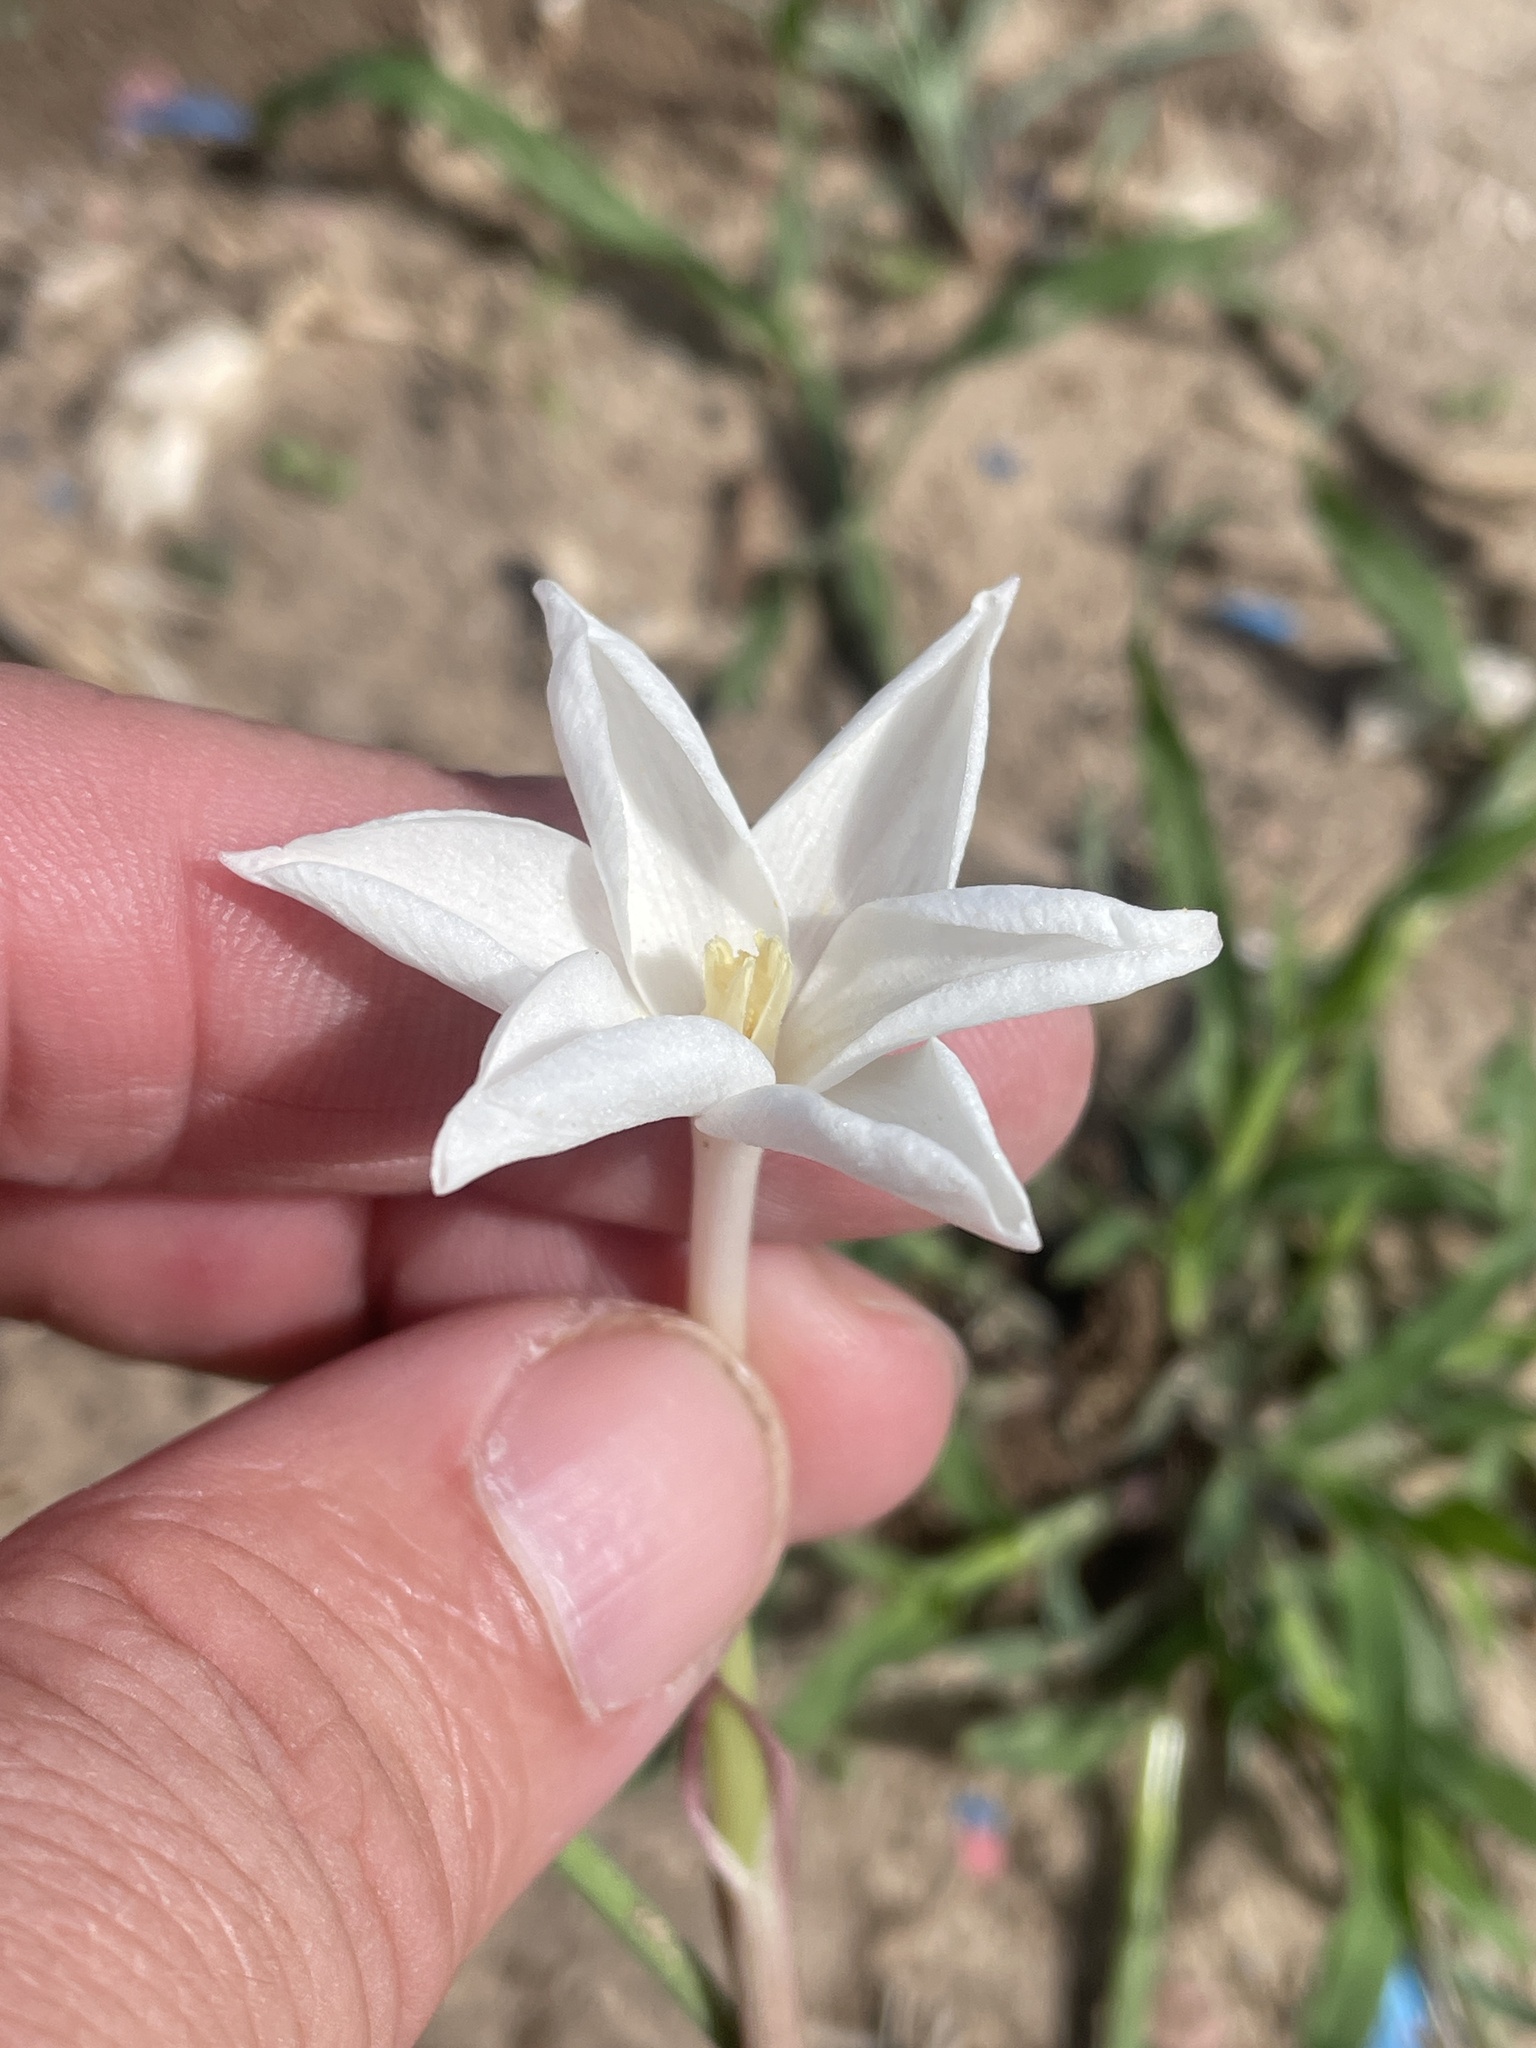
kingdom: Plantae
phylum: Tracheophyta
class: Liliopsida
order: Asparagales
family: Amaryllidaceae
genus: Zephyranthes
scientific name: Zephyranthes chlorosolen
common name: Evening rain-lily
